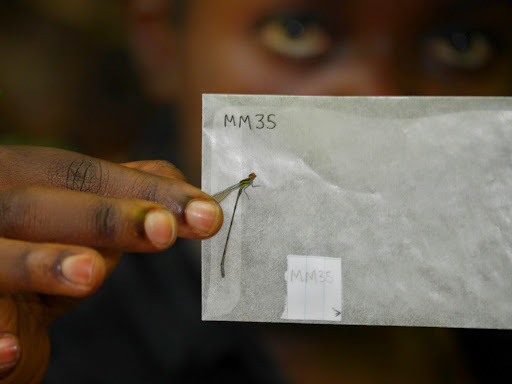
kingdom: Animalia
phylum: Arthropoda
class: Insecta
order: Odonata
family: Coenagrionidae
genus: Pseudagrion
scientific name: Pseudagrion hageni
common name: Painted sprite
